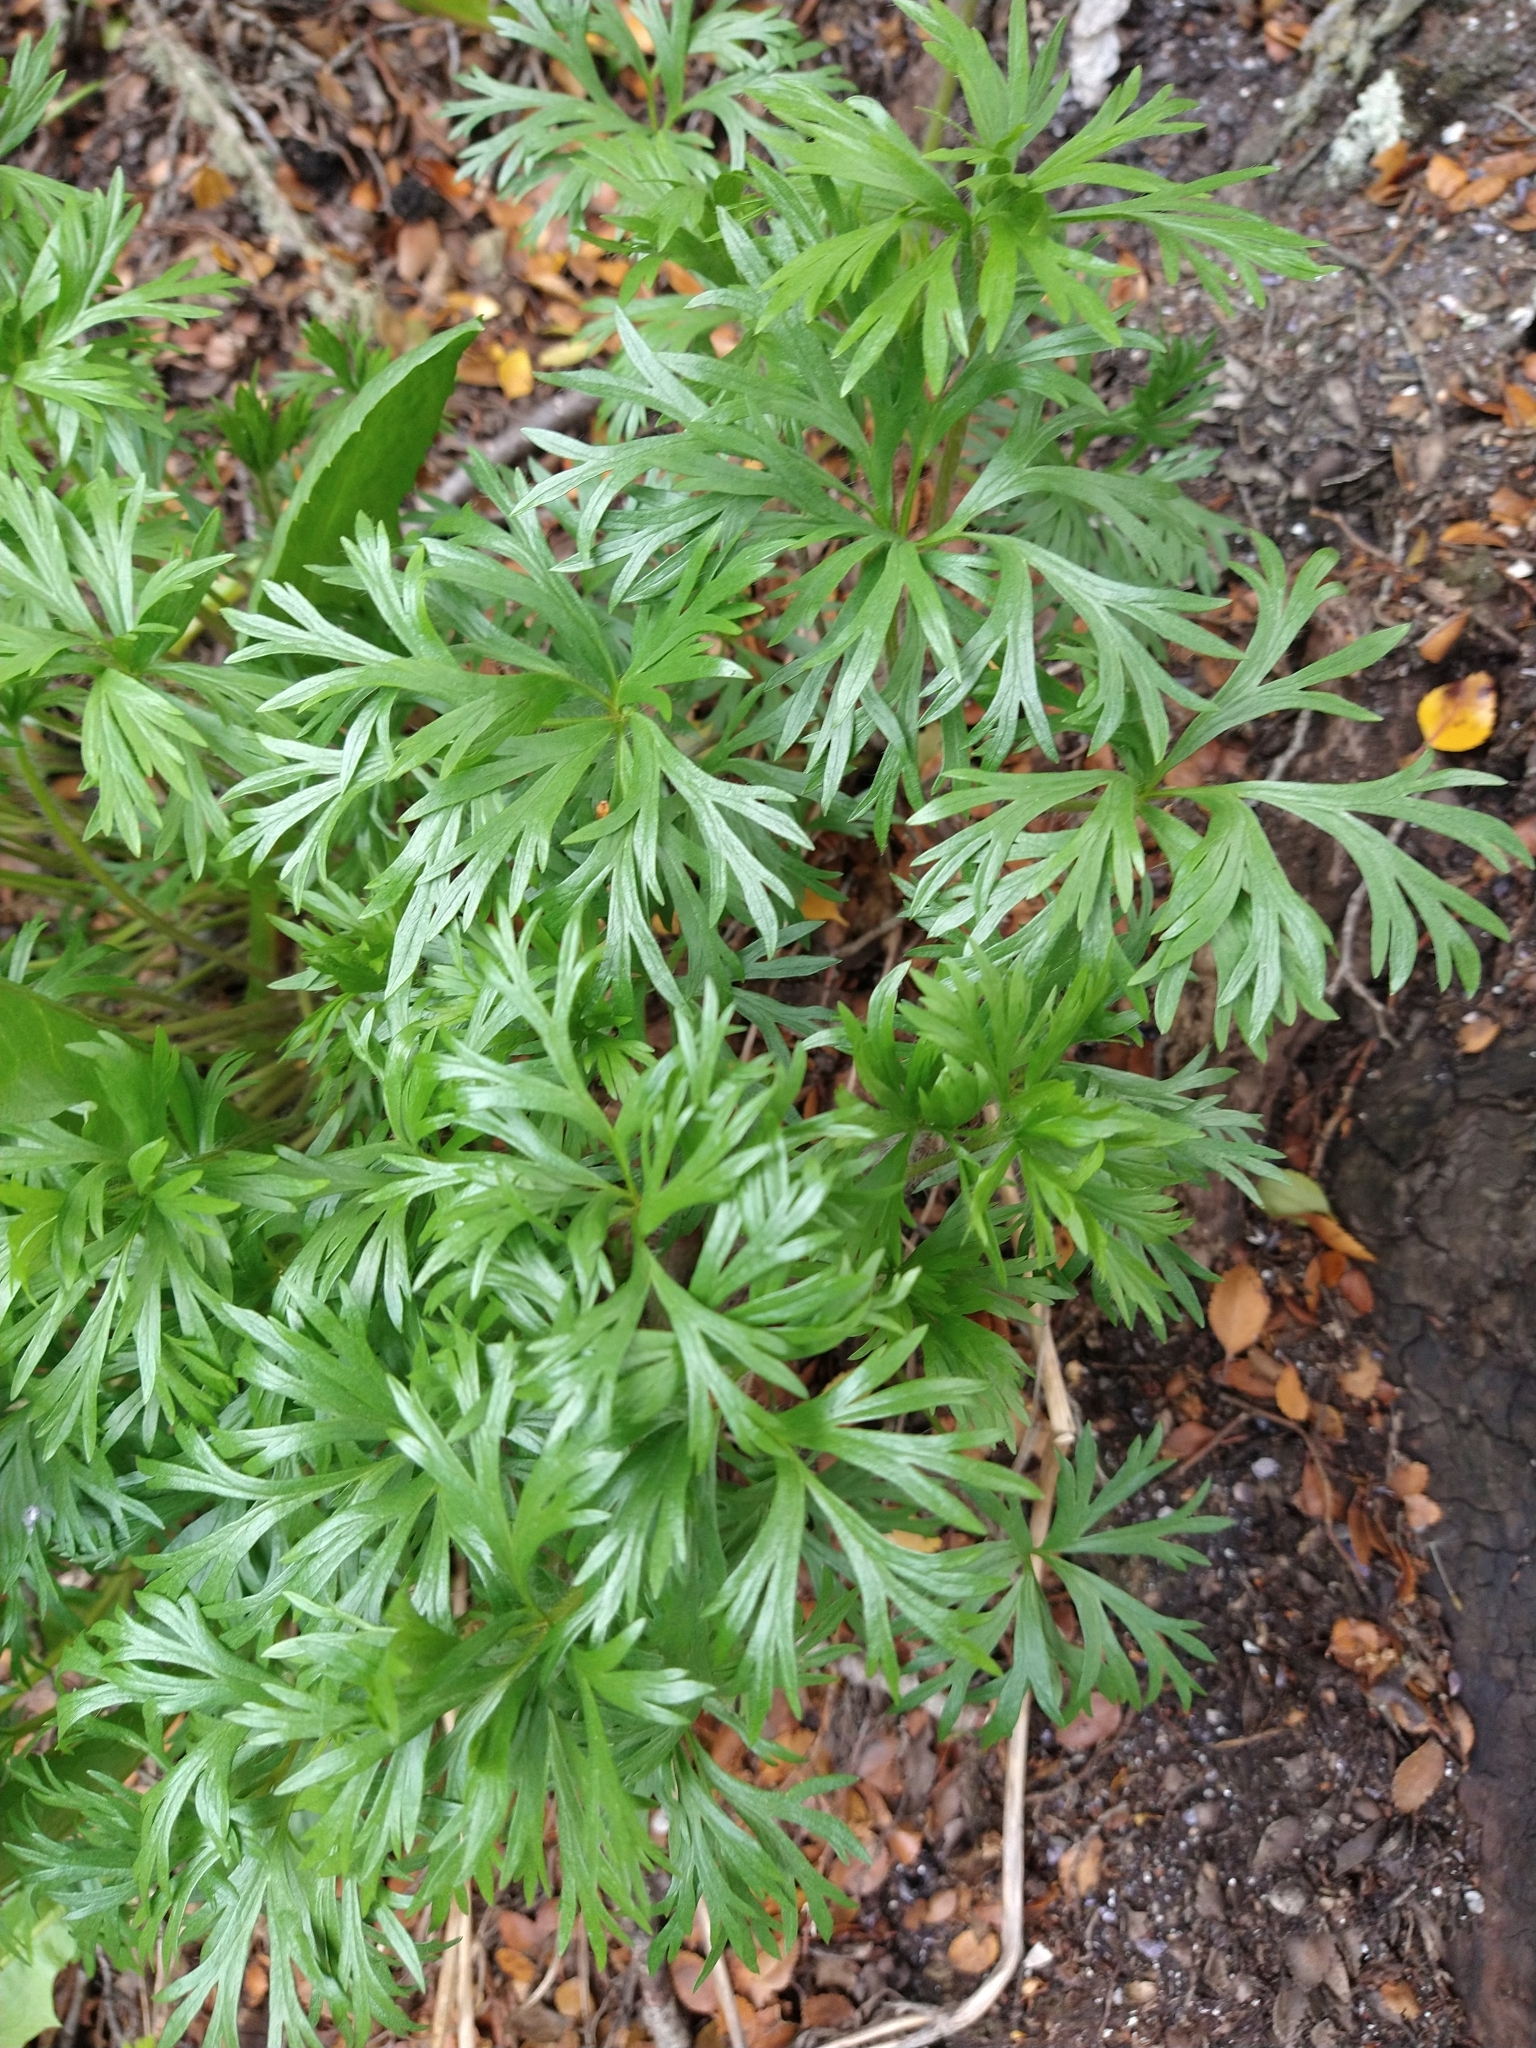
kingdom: Plantae
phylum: Tracheophyta
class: Magnoliopsida
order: Ranunculales
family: Ranunculaceae
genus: Anemone
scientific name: Anemone multifida
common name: Bird's-foot anemone
